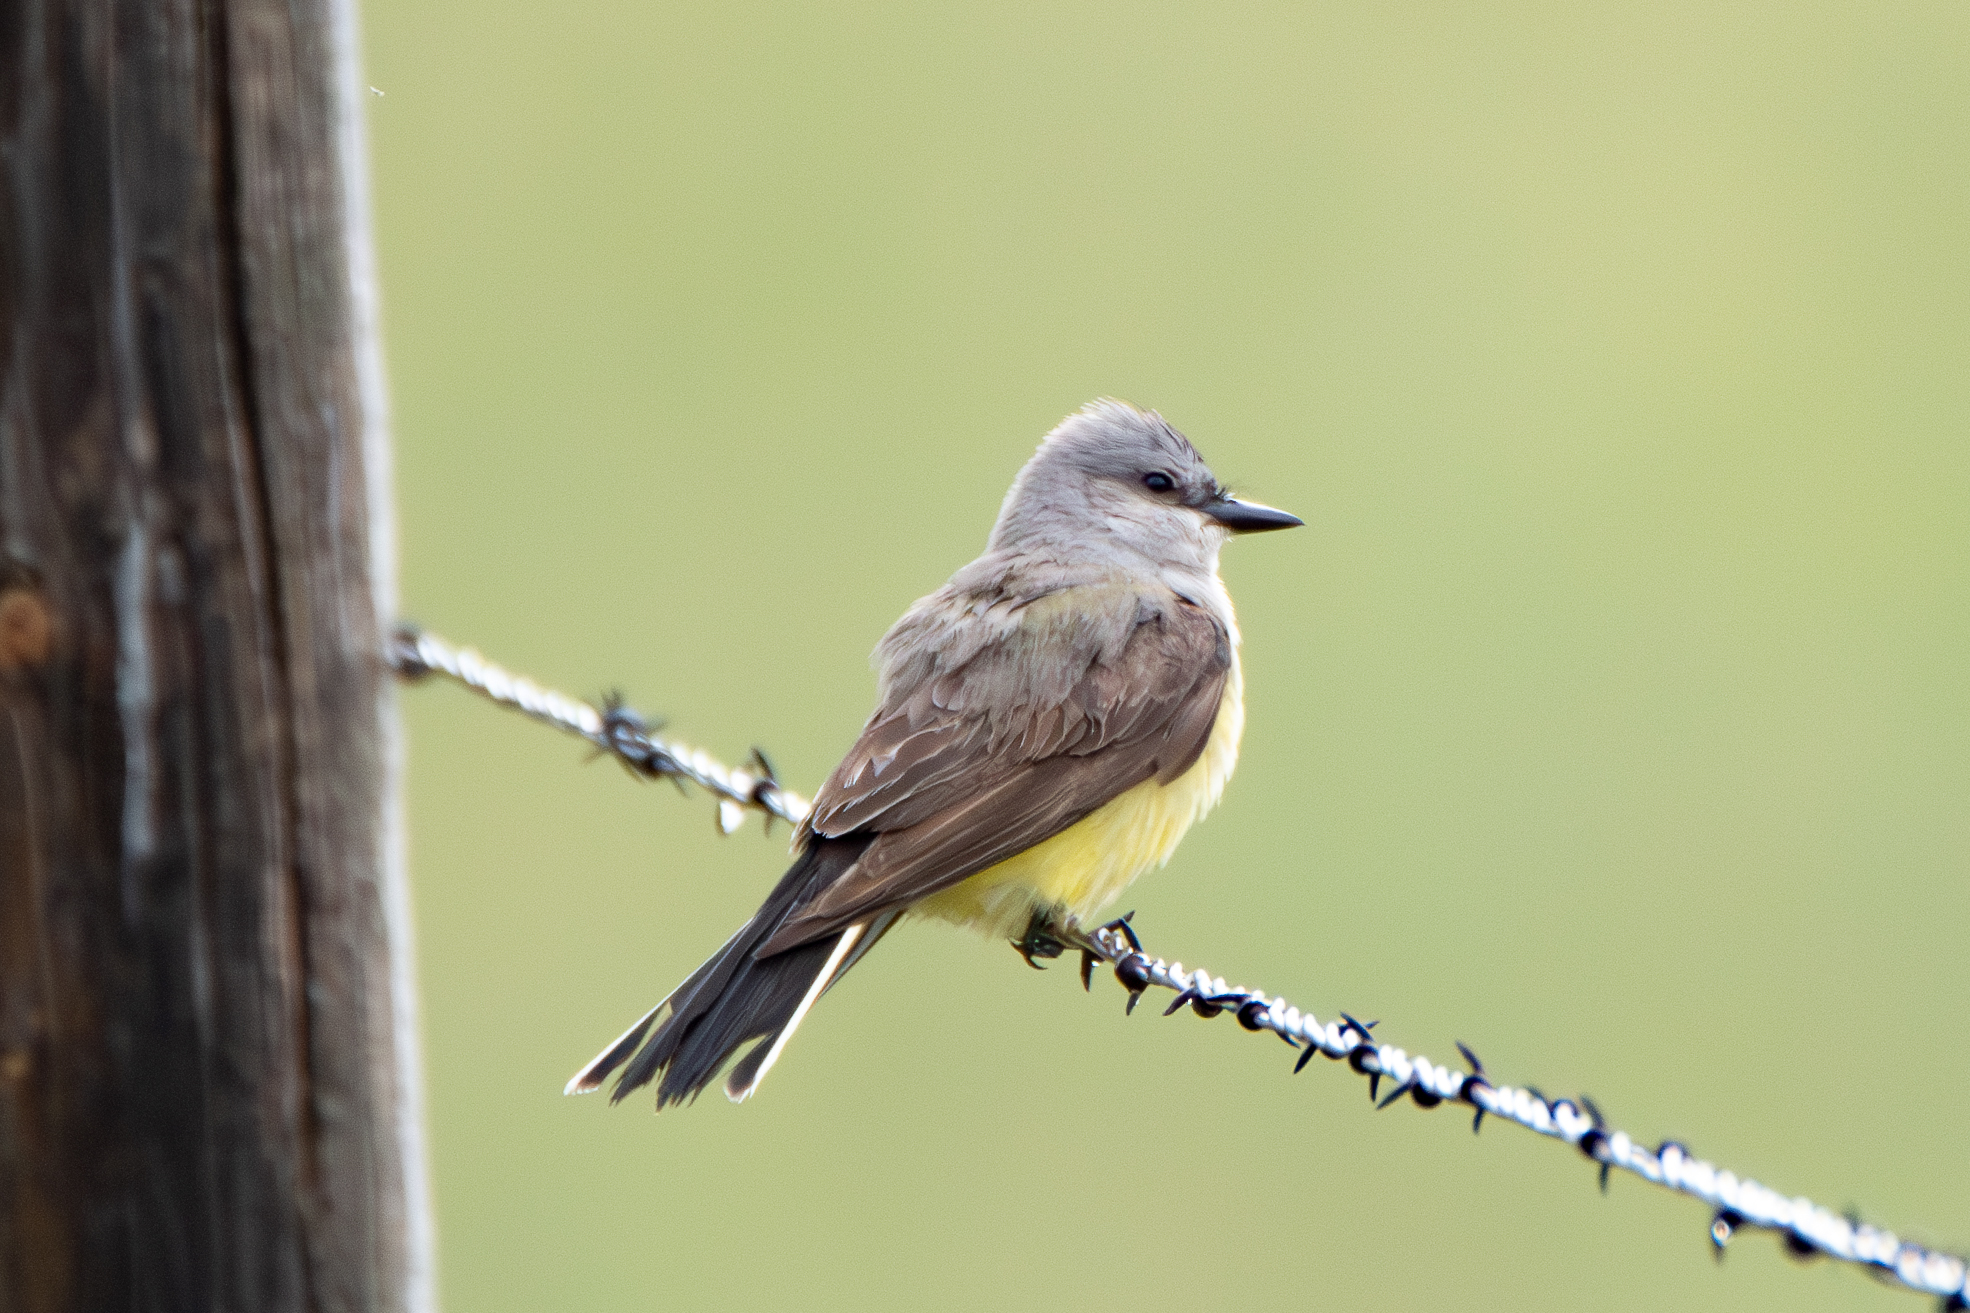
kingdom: Animalia
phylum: Chordata
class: Aves
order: Passeriformes
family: Tyrannidae
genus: Tyrannus
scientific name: Tyrannus verticalis
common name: Western kingbird
